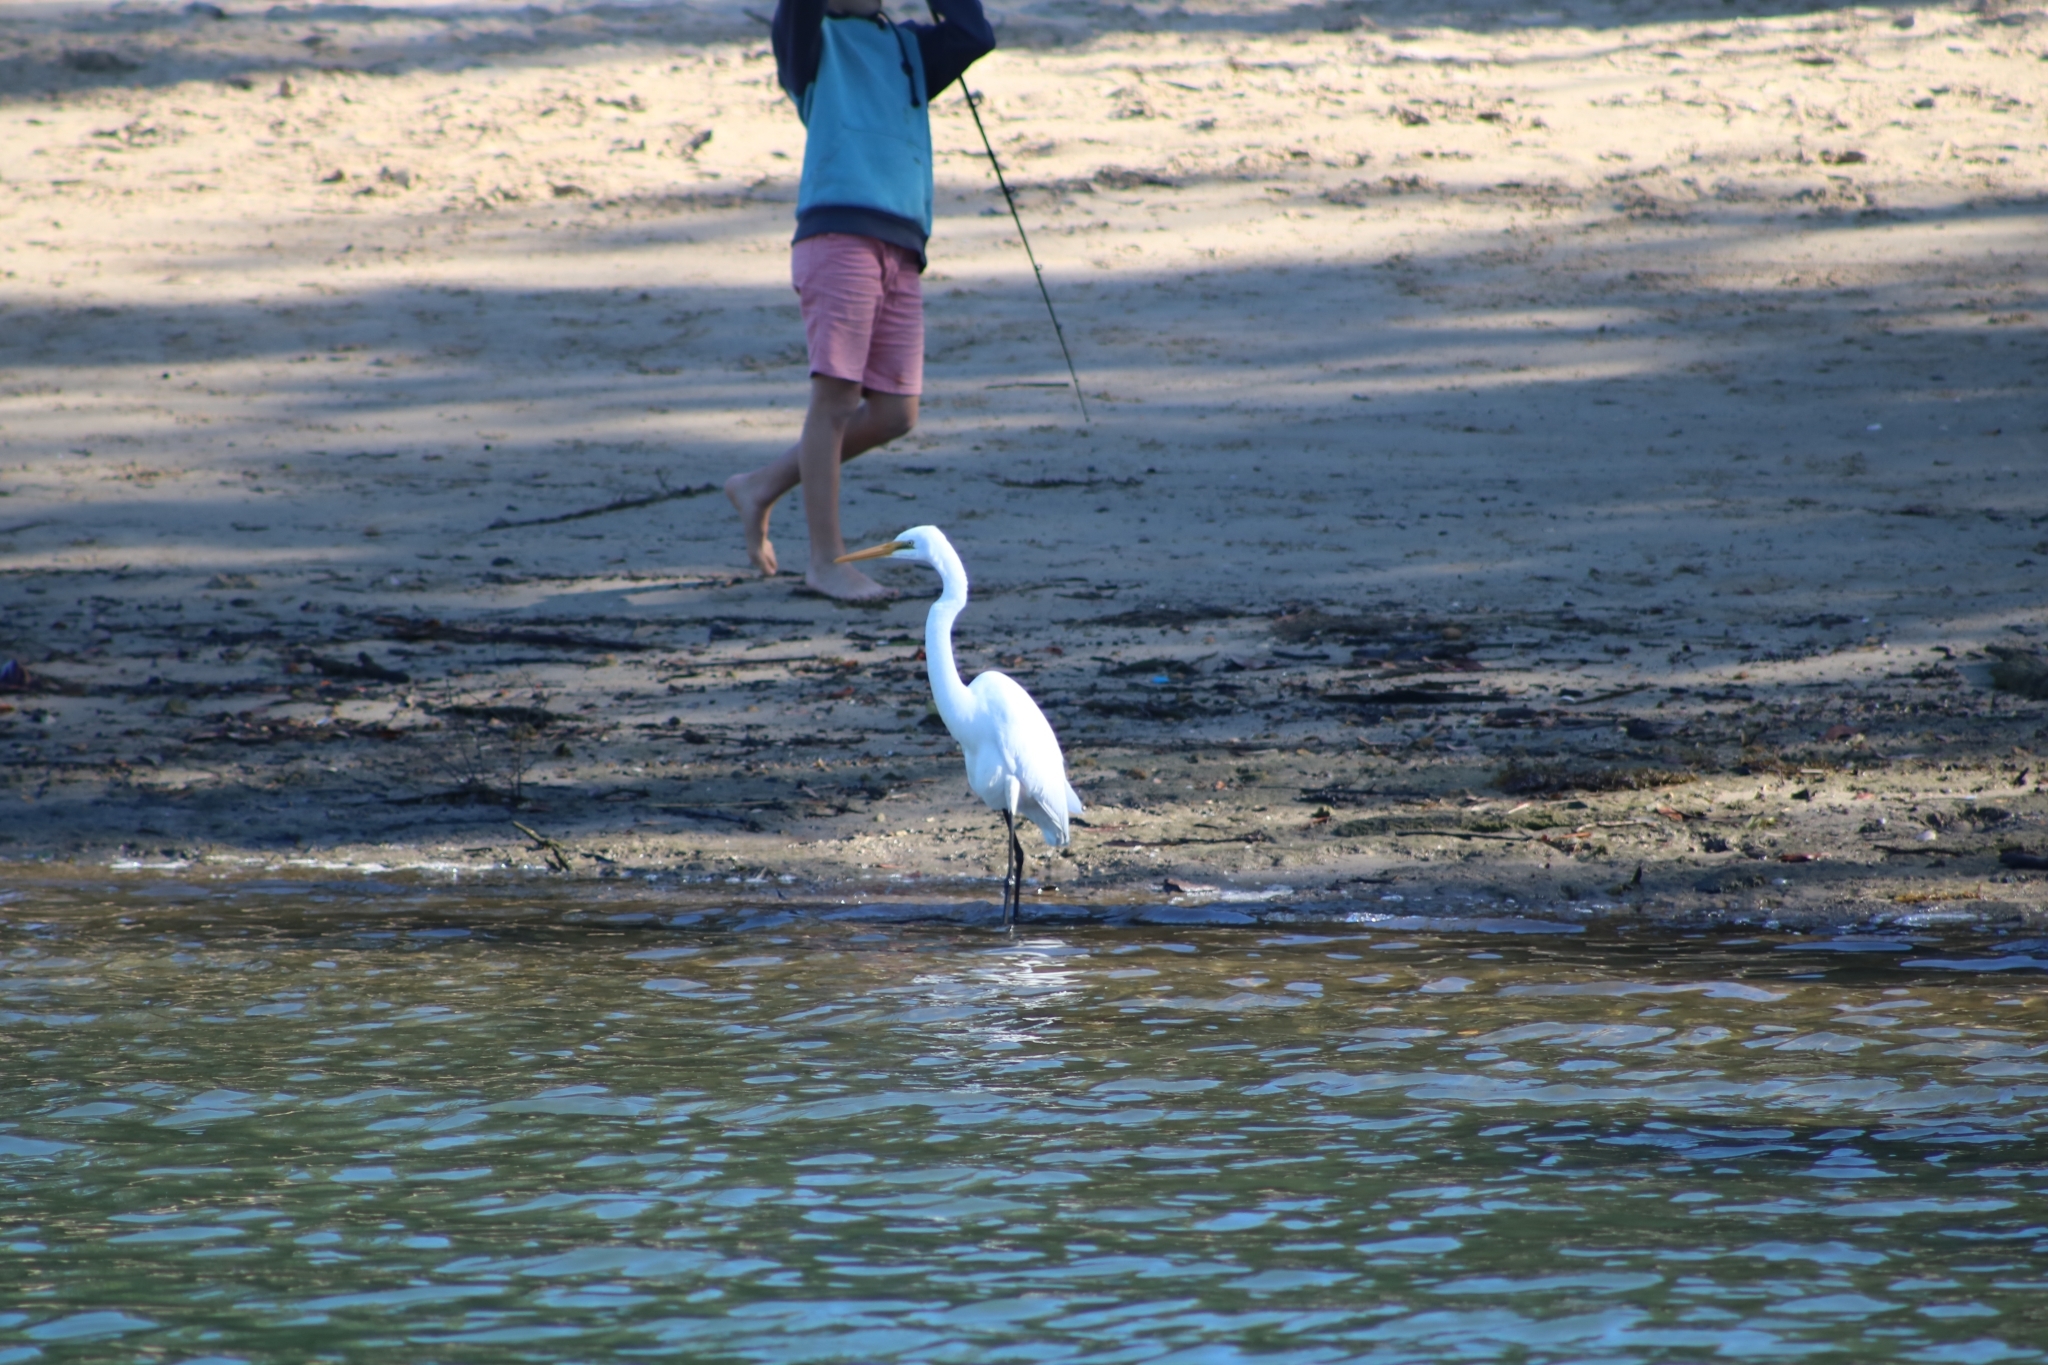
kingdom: Animalia
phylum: Chordata
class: Aves
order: Pelecaniformes
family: Ardeidae
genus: Ardea
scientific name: Ardea alba
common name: Great egret
